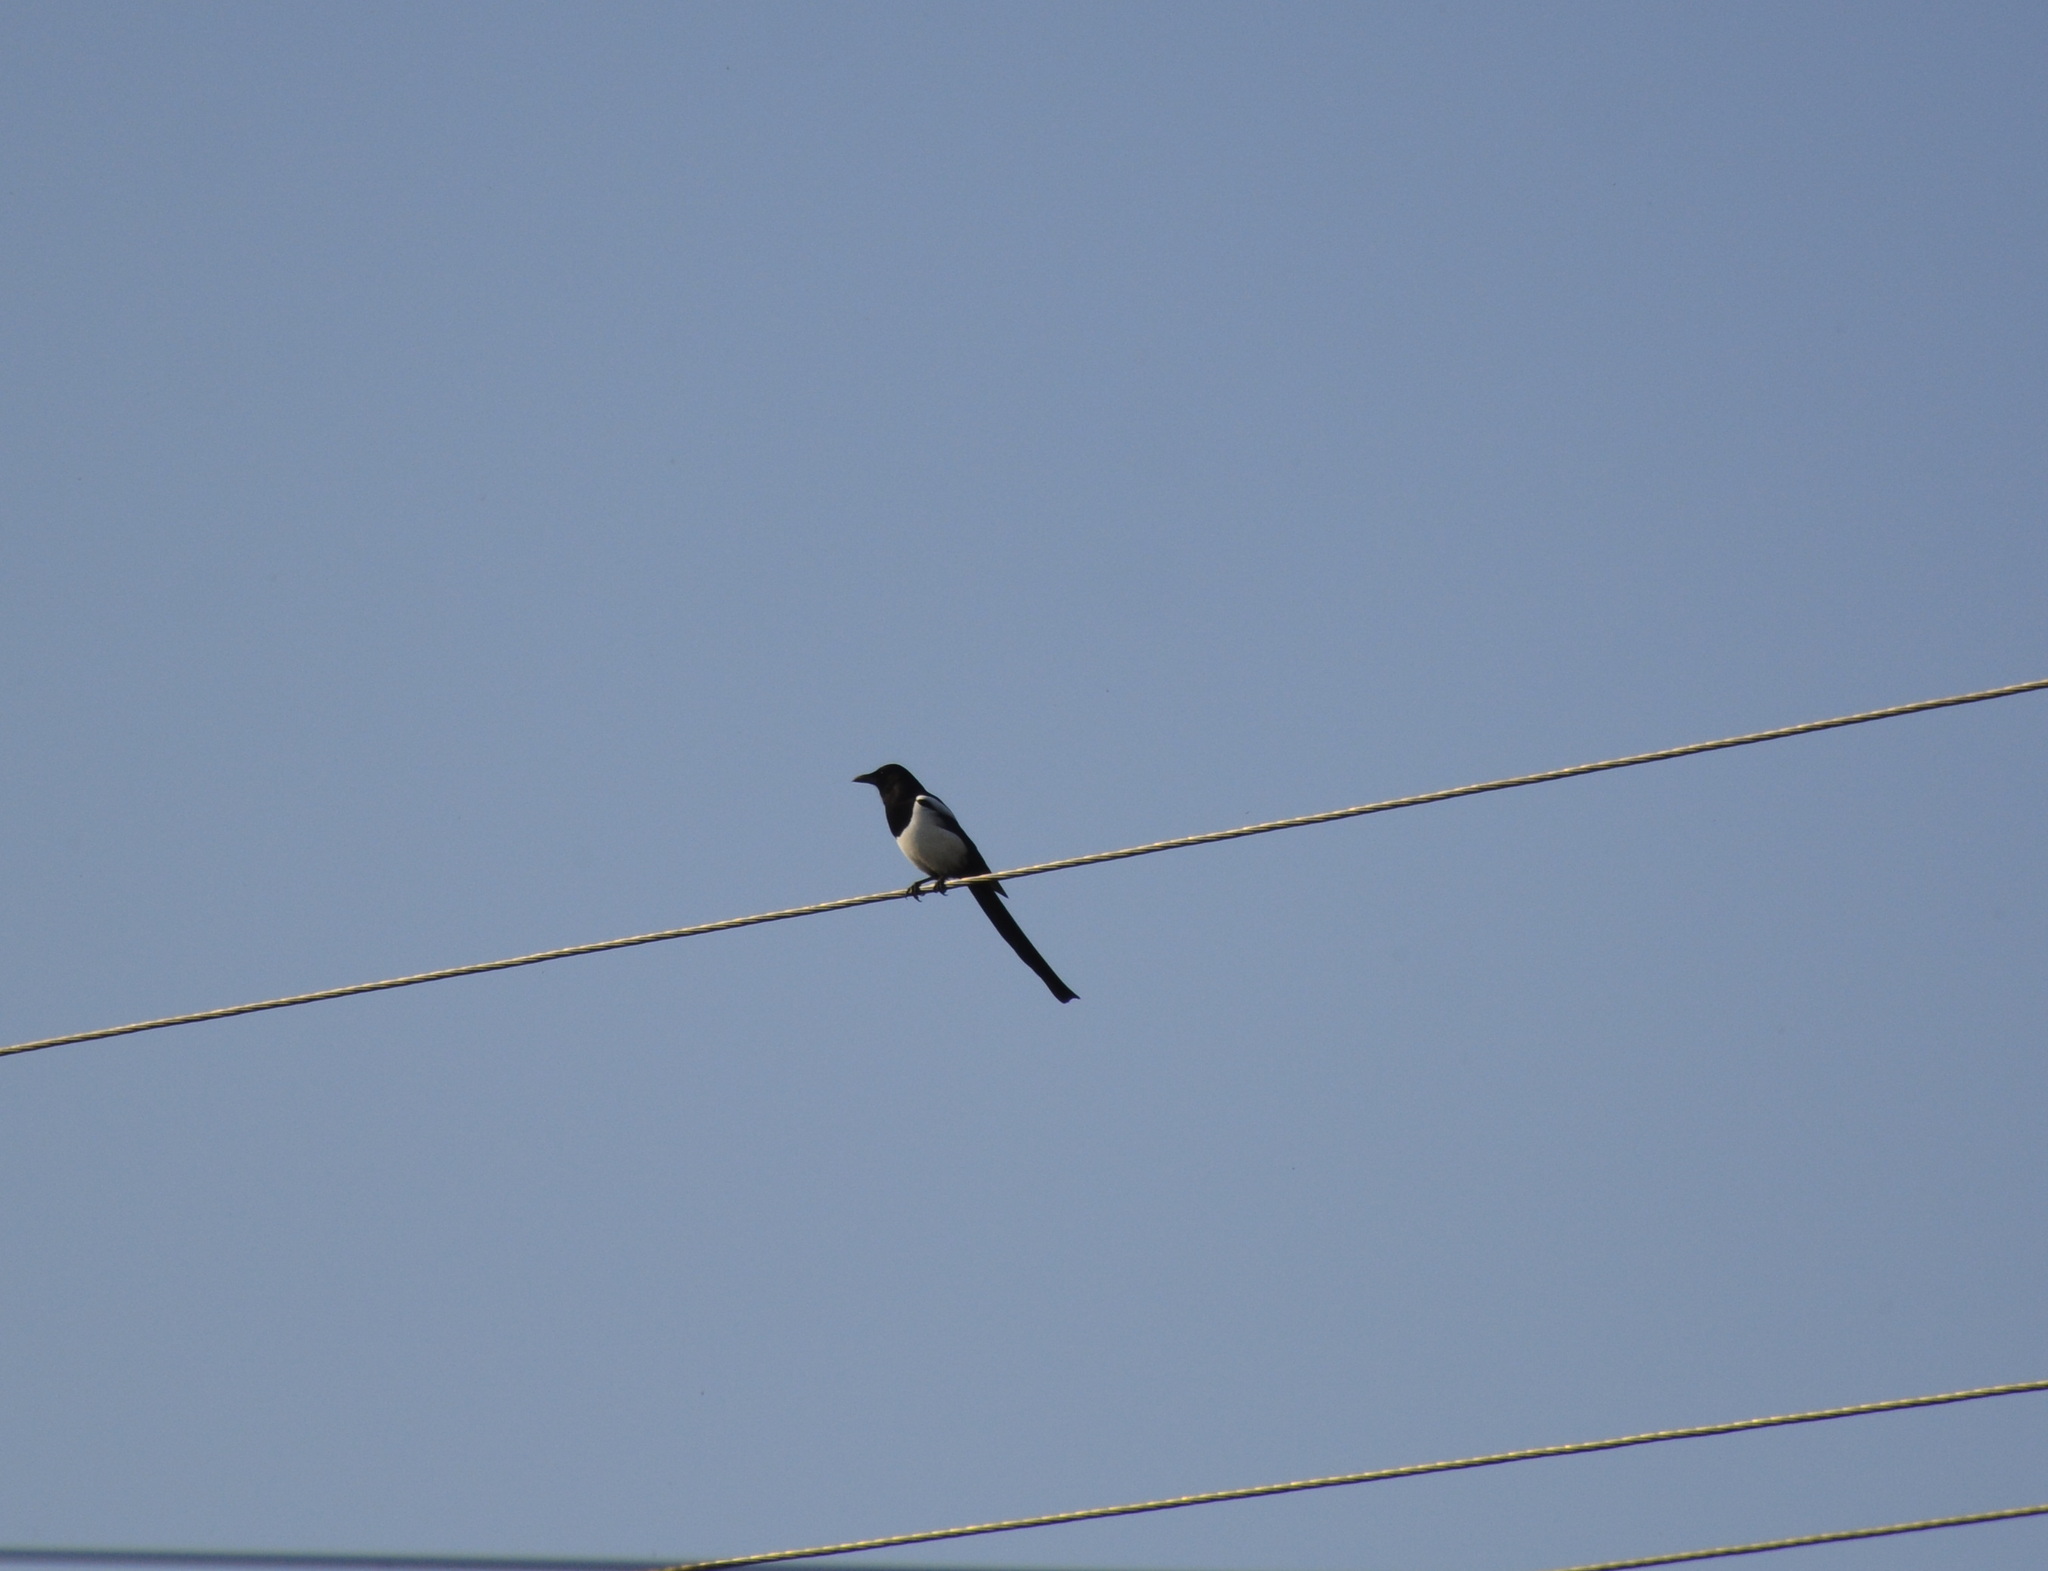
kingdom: Animalia
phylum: Chordata
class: Aves
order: Passeriformes
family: Corvidae
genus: Pica
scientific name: Pica pica
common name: Eurasian magpie
